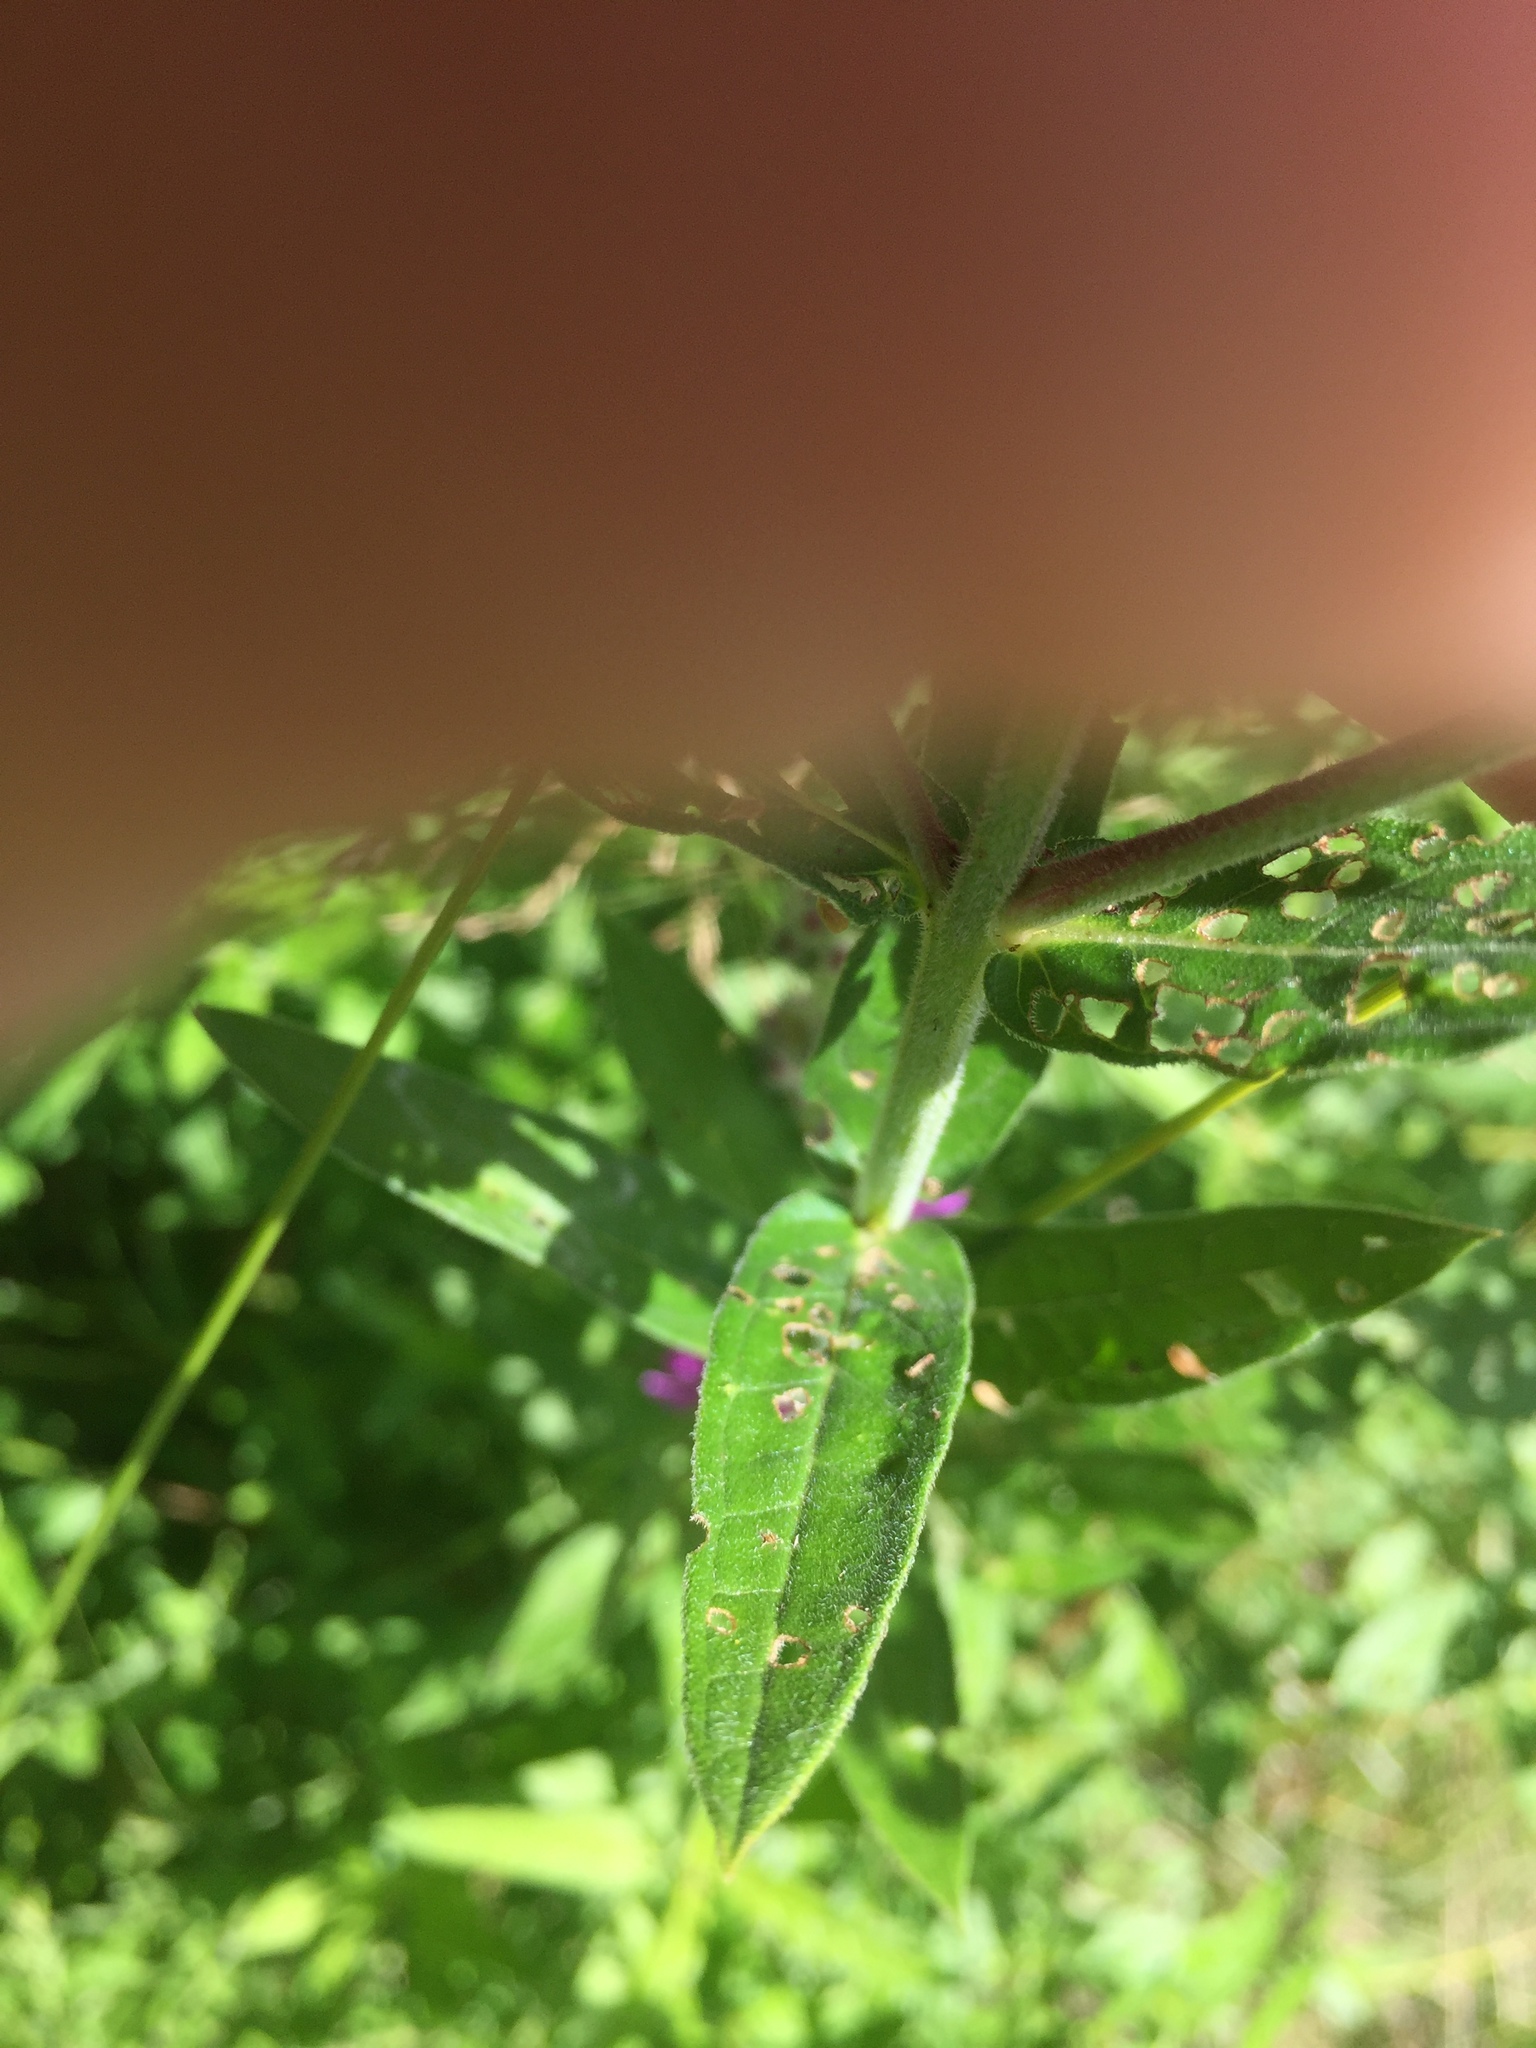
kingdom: Plantae
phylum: Tracheophyta
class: Magnoliopsida
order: Myrtales
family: Lythraceae
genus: Lythrum
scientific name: Lythrum salicaria
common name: Purple loosestrife
